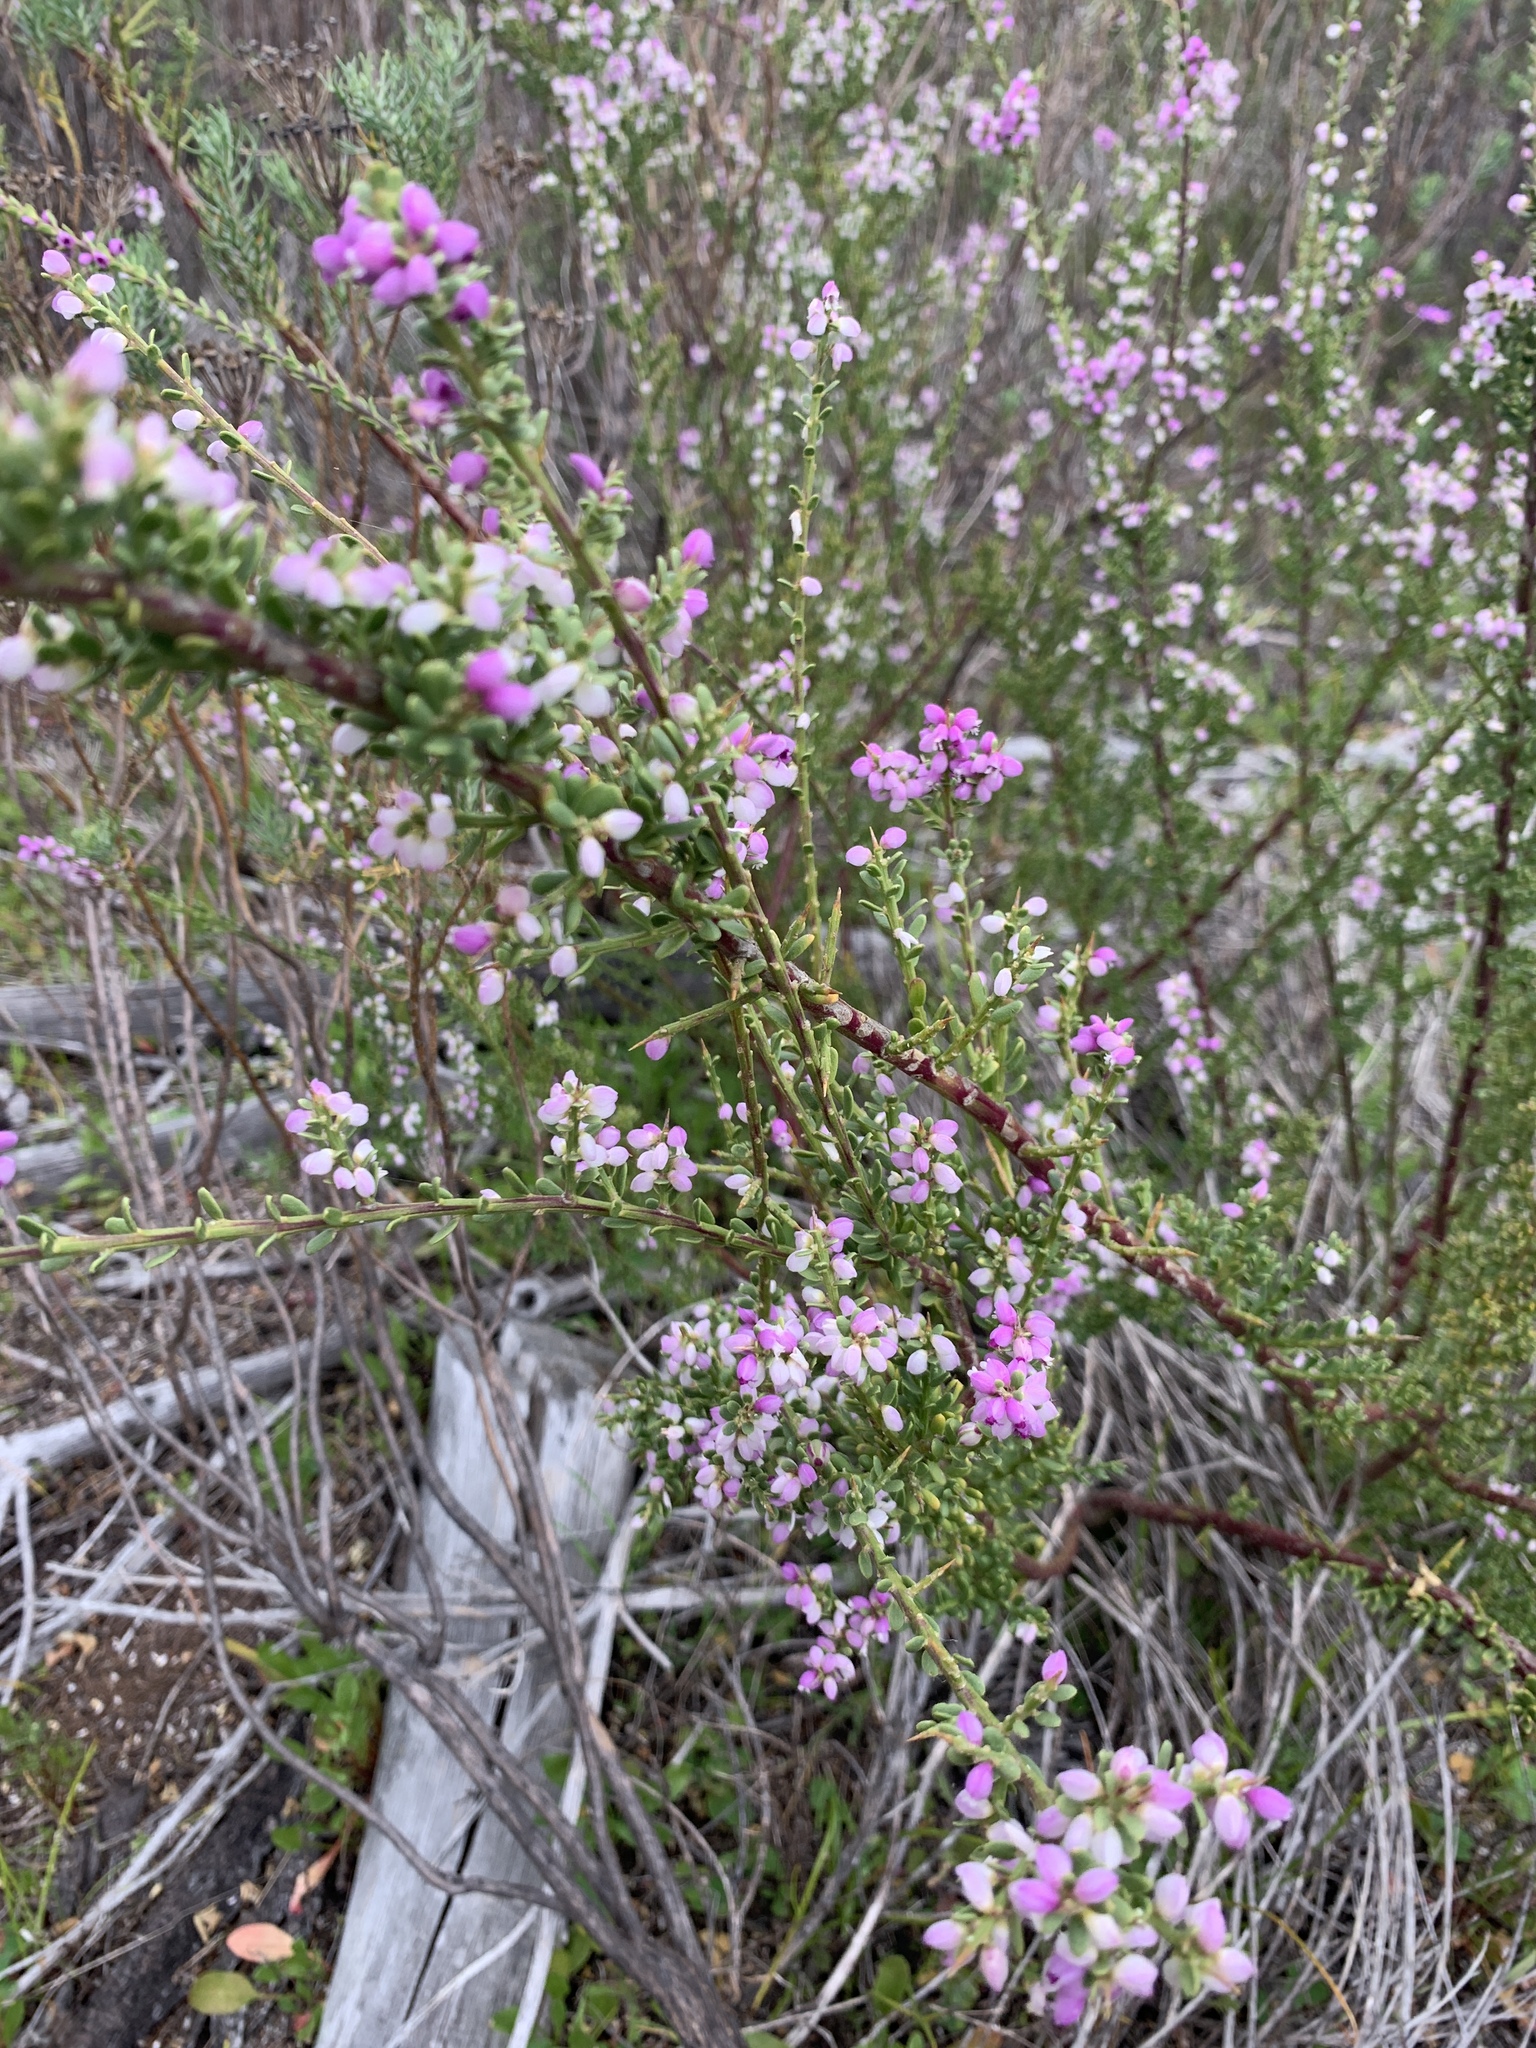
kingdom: Plantae
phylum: Tracheophyta
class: Magnoliopsida
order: Fabales
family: Polygalaceae
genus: Muraltia
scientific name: Muraltia spinosa
